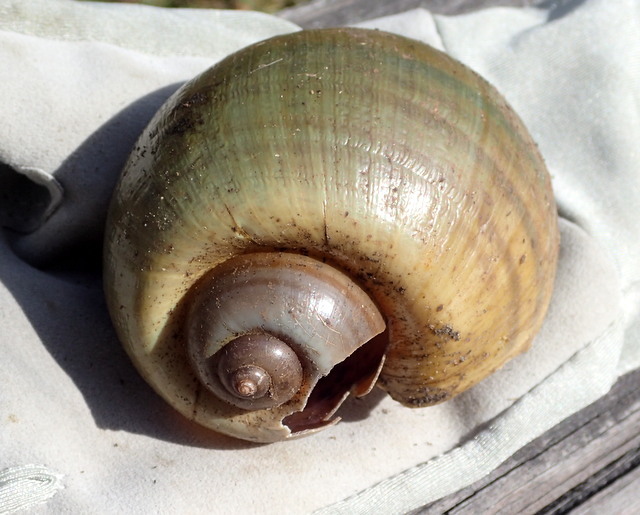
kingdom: Animalia
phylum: Mollusca
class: Gastropoda
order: Architaenioglossa
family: Ampullariidae
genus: Pomacea
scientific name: Pomacea maculata
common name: Giant applesnail
